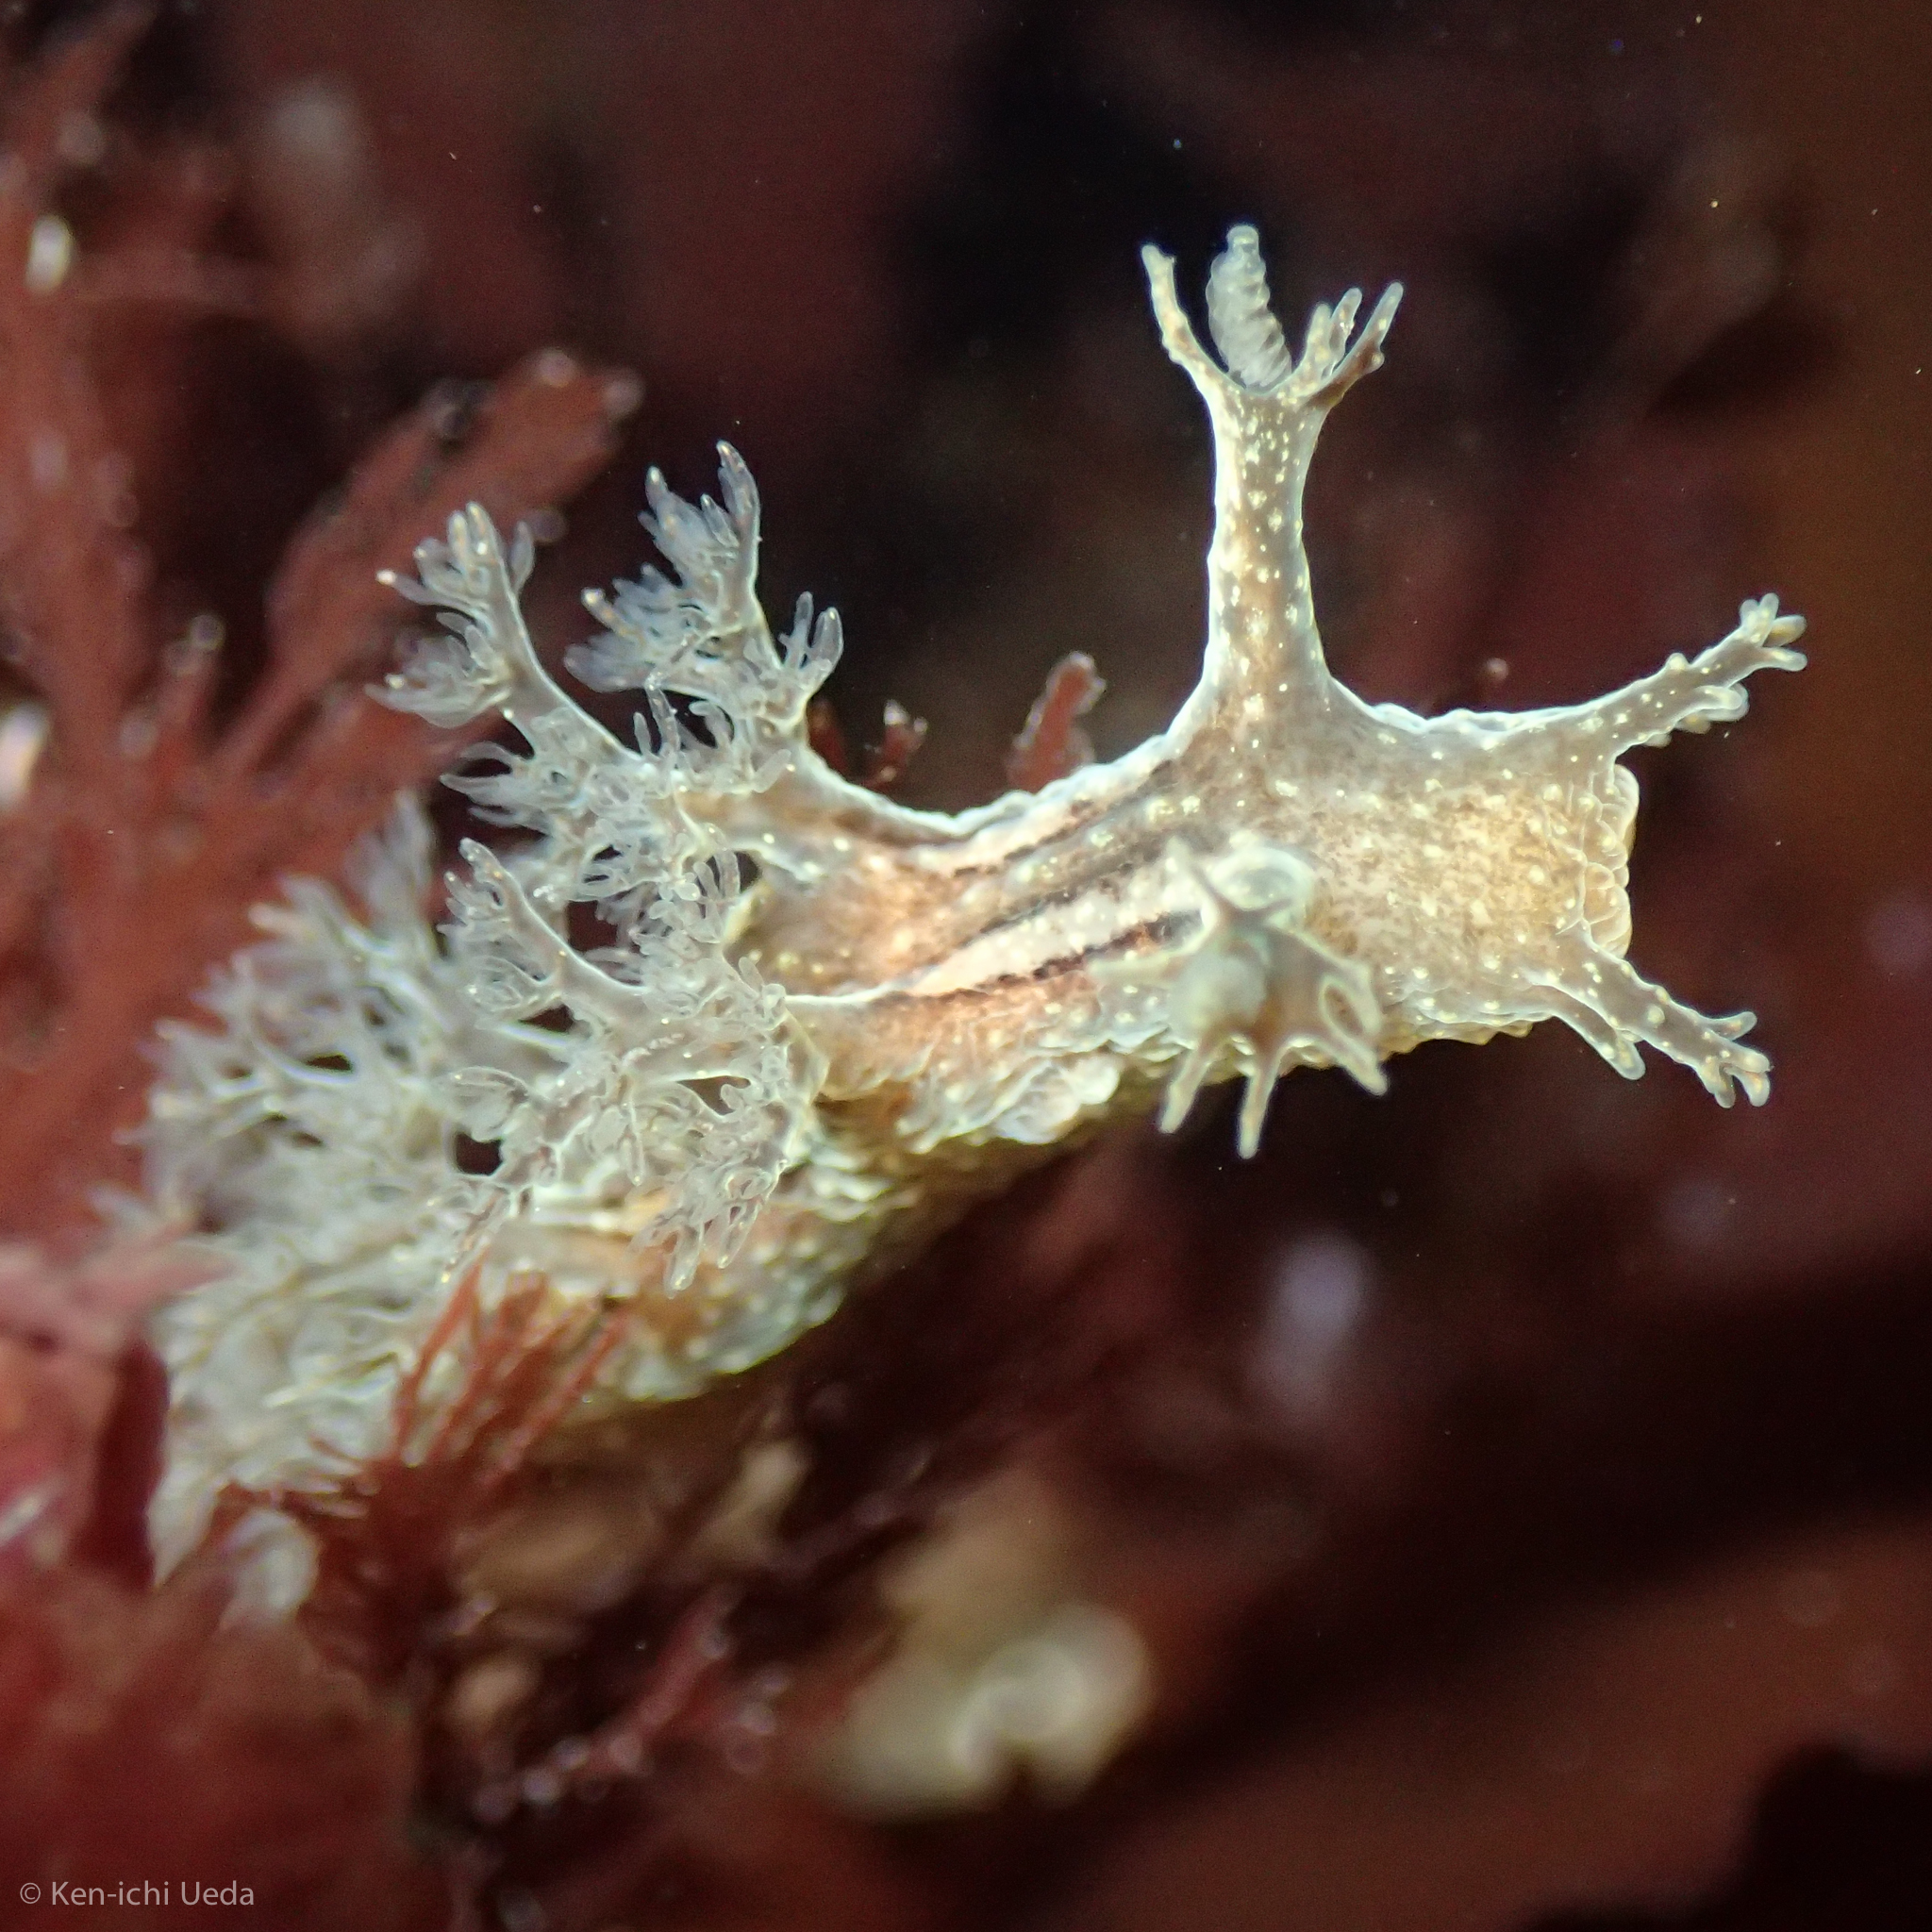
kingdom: Animalia
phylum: Mollusca
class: Gastropoda
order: Nudibranchia
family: Dendronotidae
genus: Dendronotus
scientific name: Dendronotus subramosus
